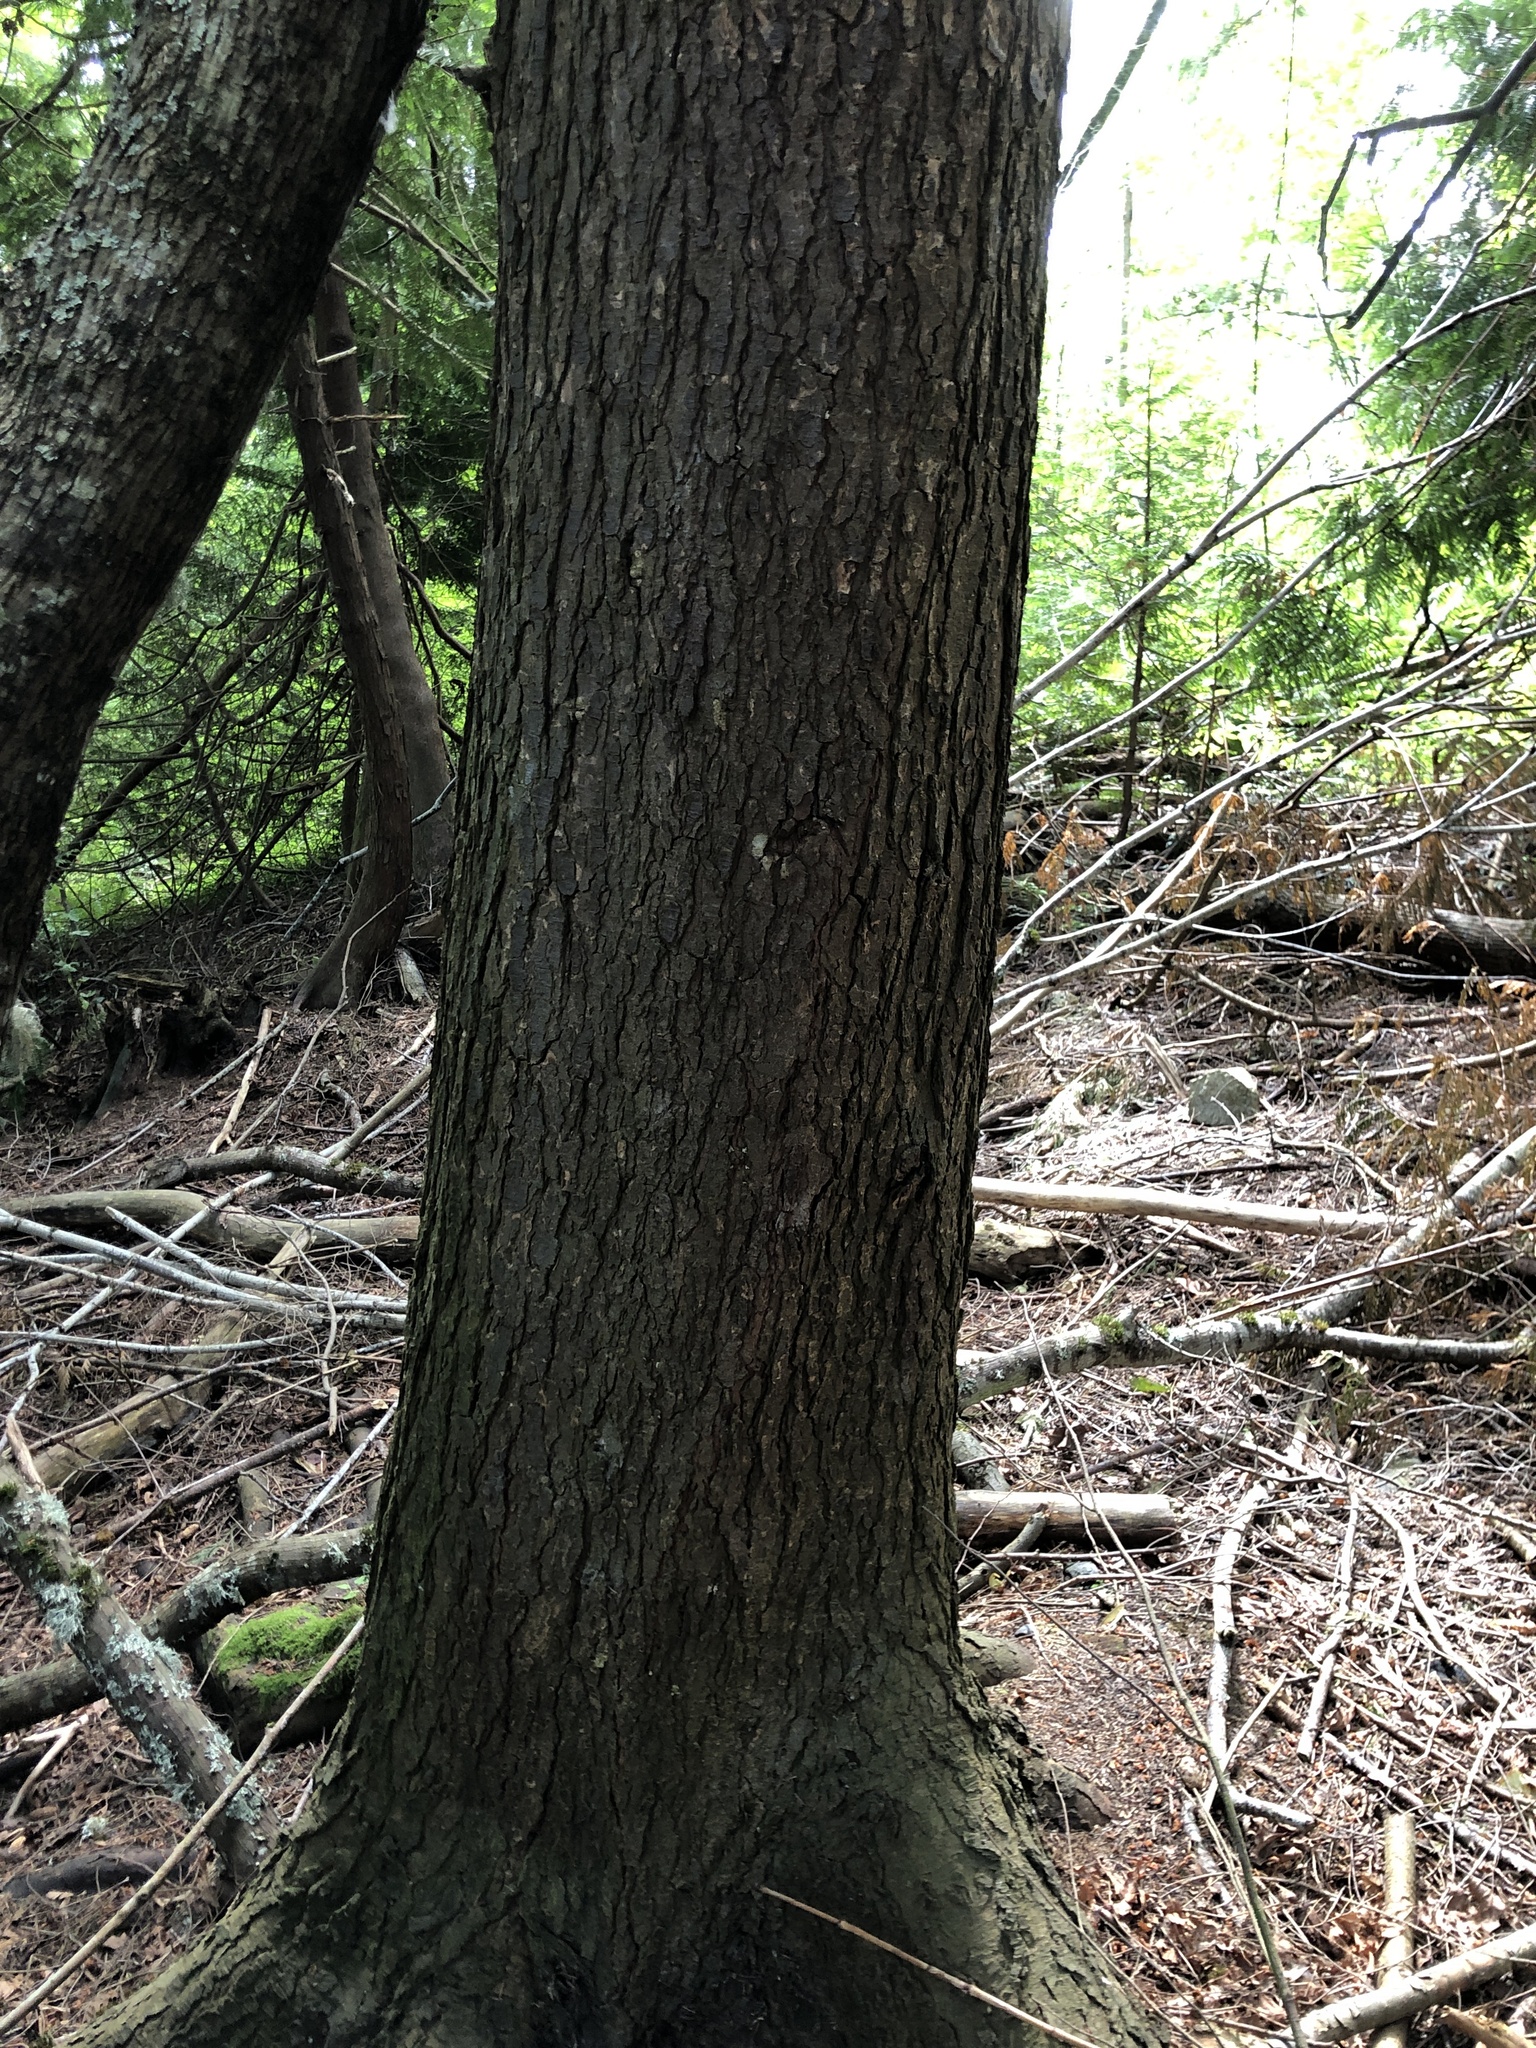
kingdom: Plantae
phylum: Tracheophyta
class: Pinopsida
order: Pinales
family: Pinaceae
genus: Tsuga
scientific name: Tsuga heterophylla
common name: Western hemlock
